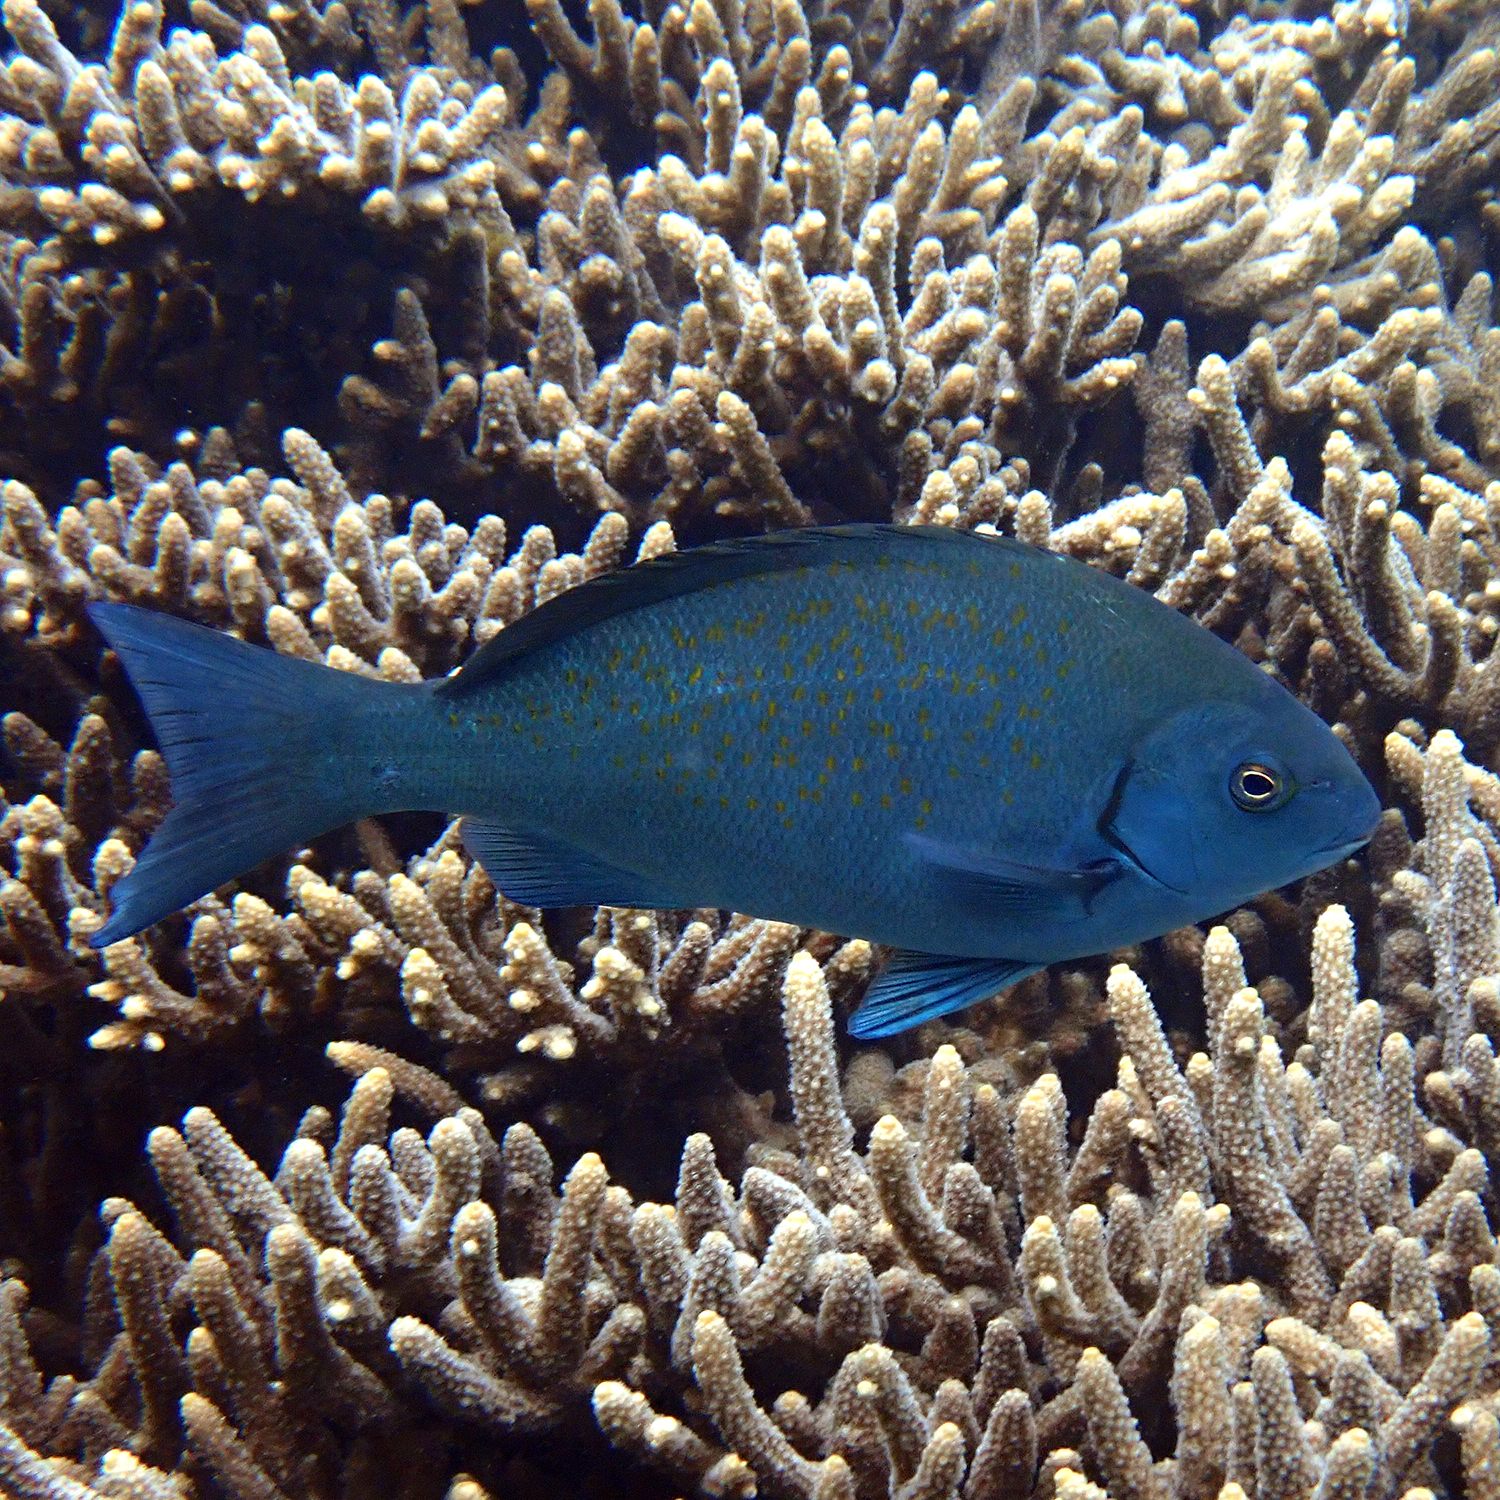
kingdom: Animalia
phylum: Chordata
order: Perciformes
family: Kyphosidae
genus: Girella
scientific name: Girella cyanea
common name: Bluefish
